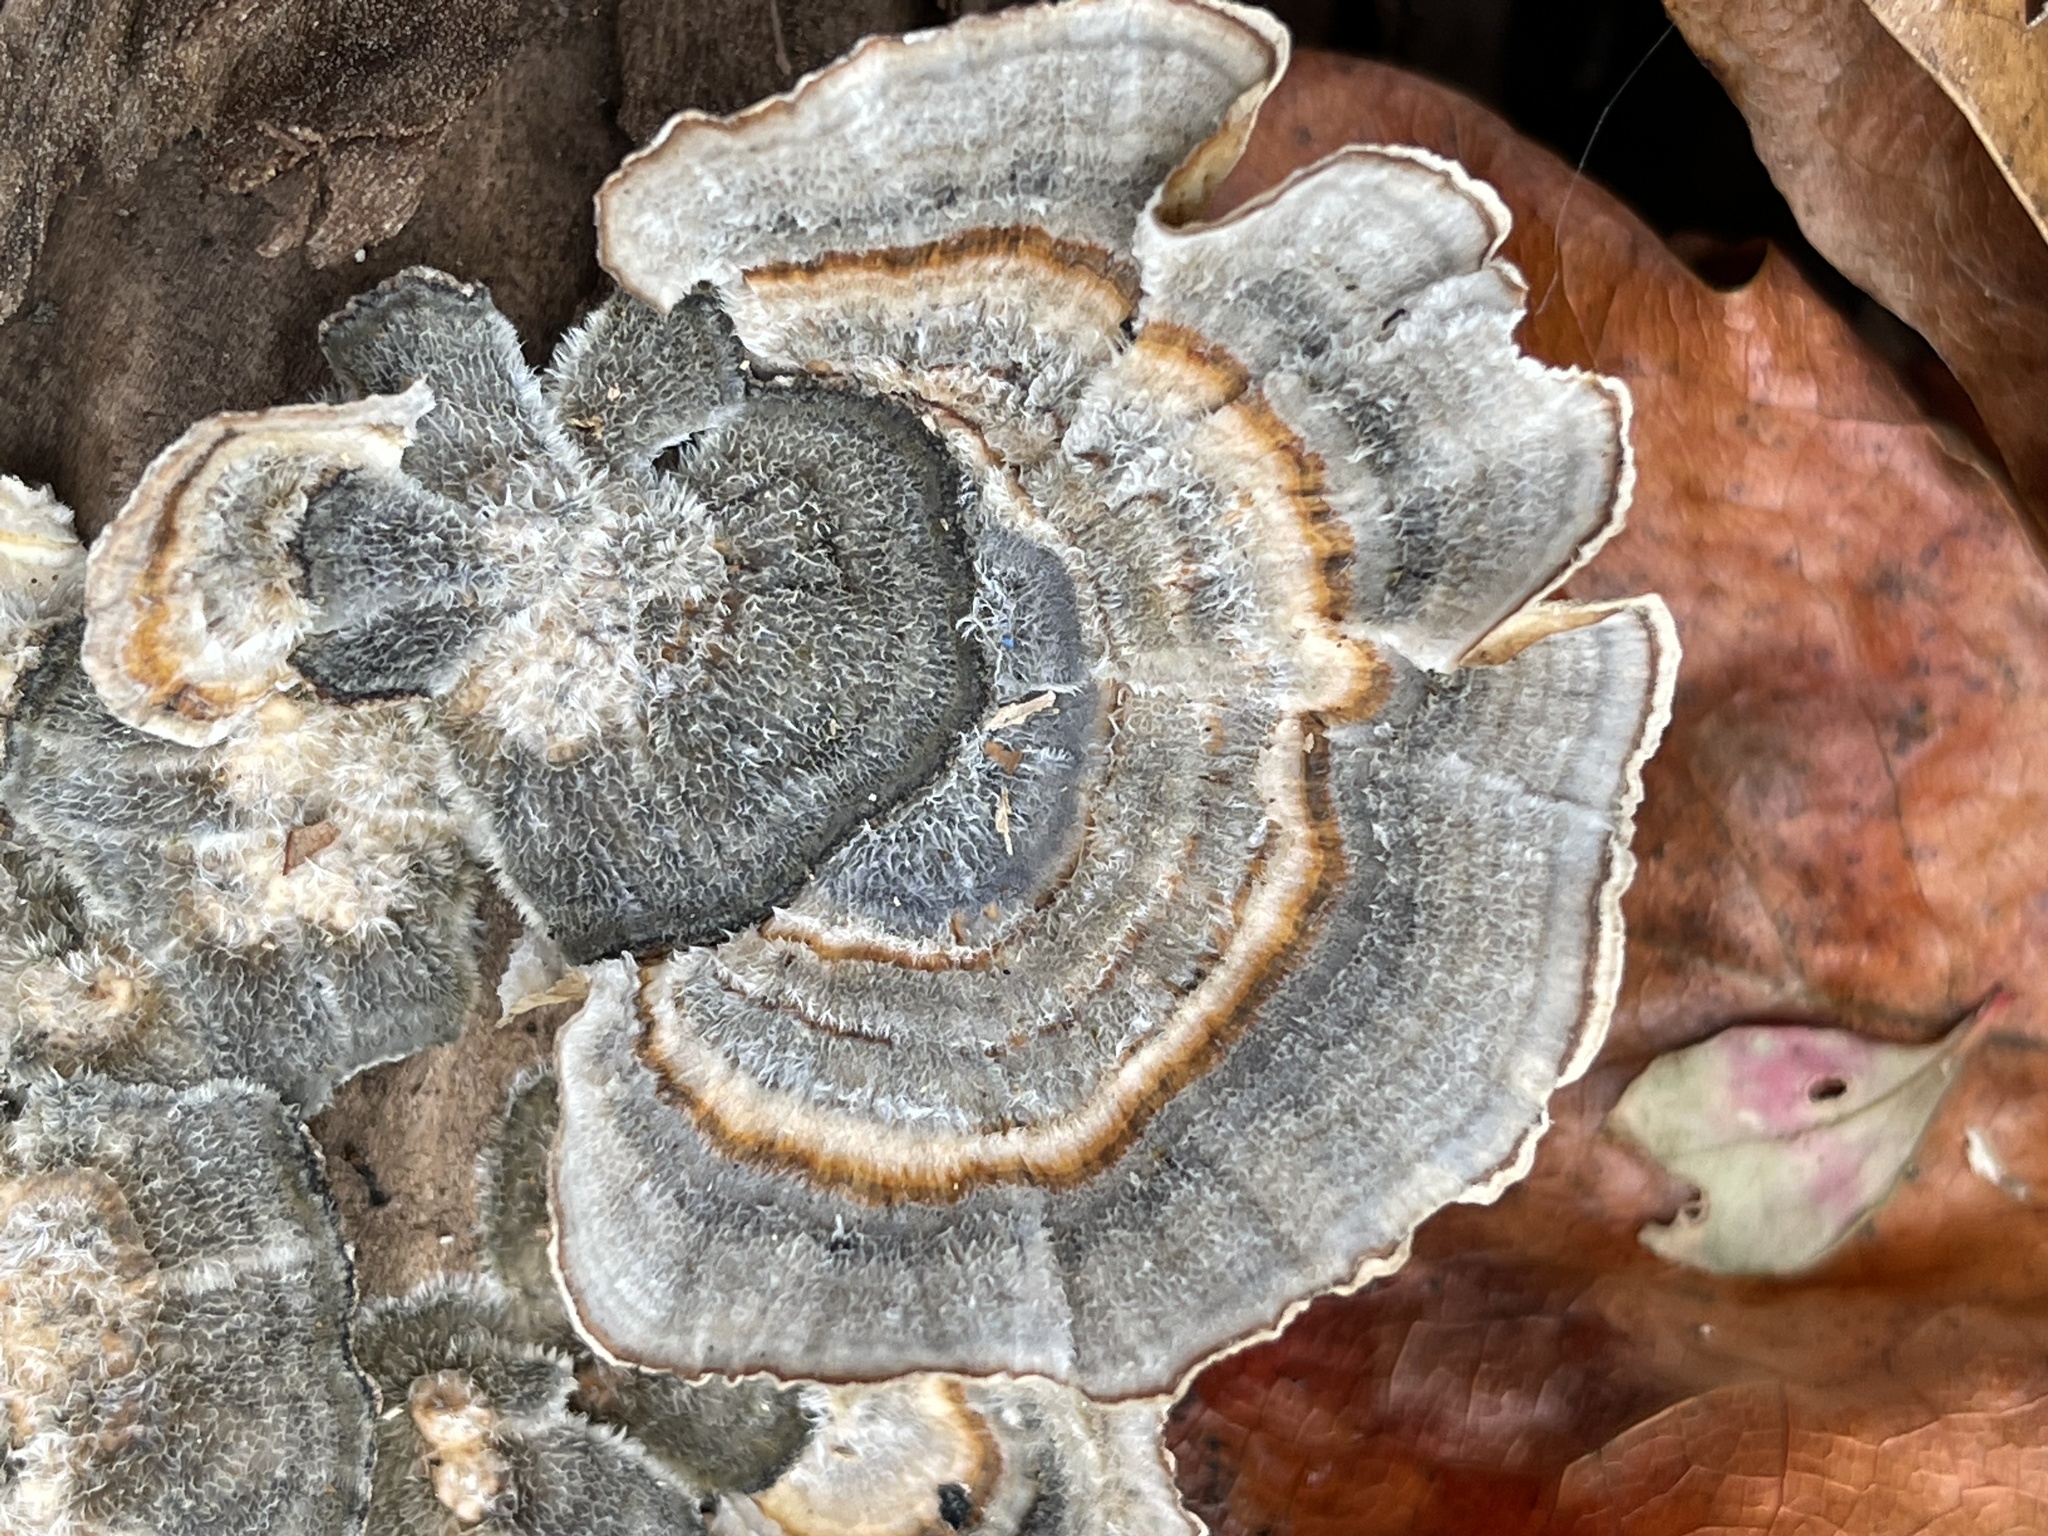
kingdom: Fungi
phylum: Basidiomycota
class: Agaricomycetes
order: Polyporales
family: Polyporaceae
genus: Trametes
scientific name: Trametes versicolor
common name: Turkeytail
